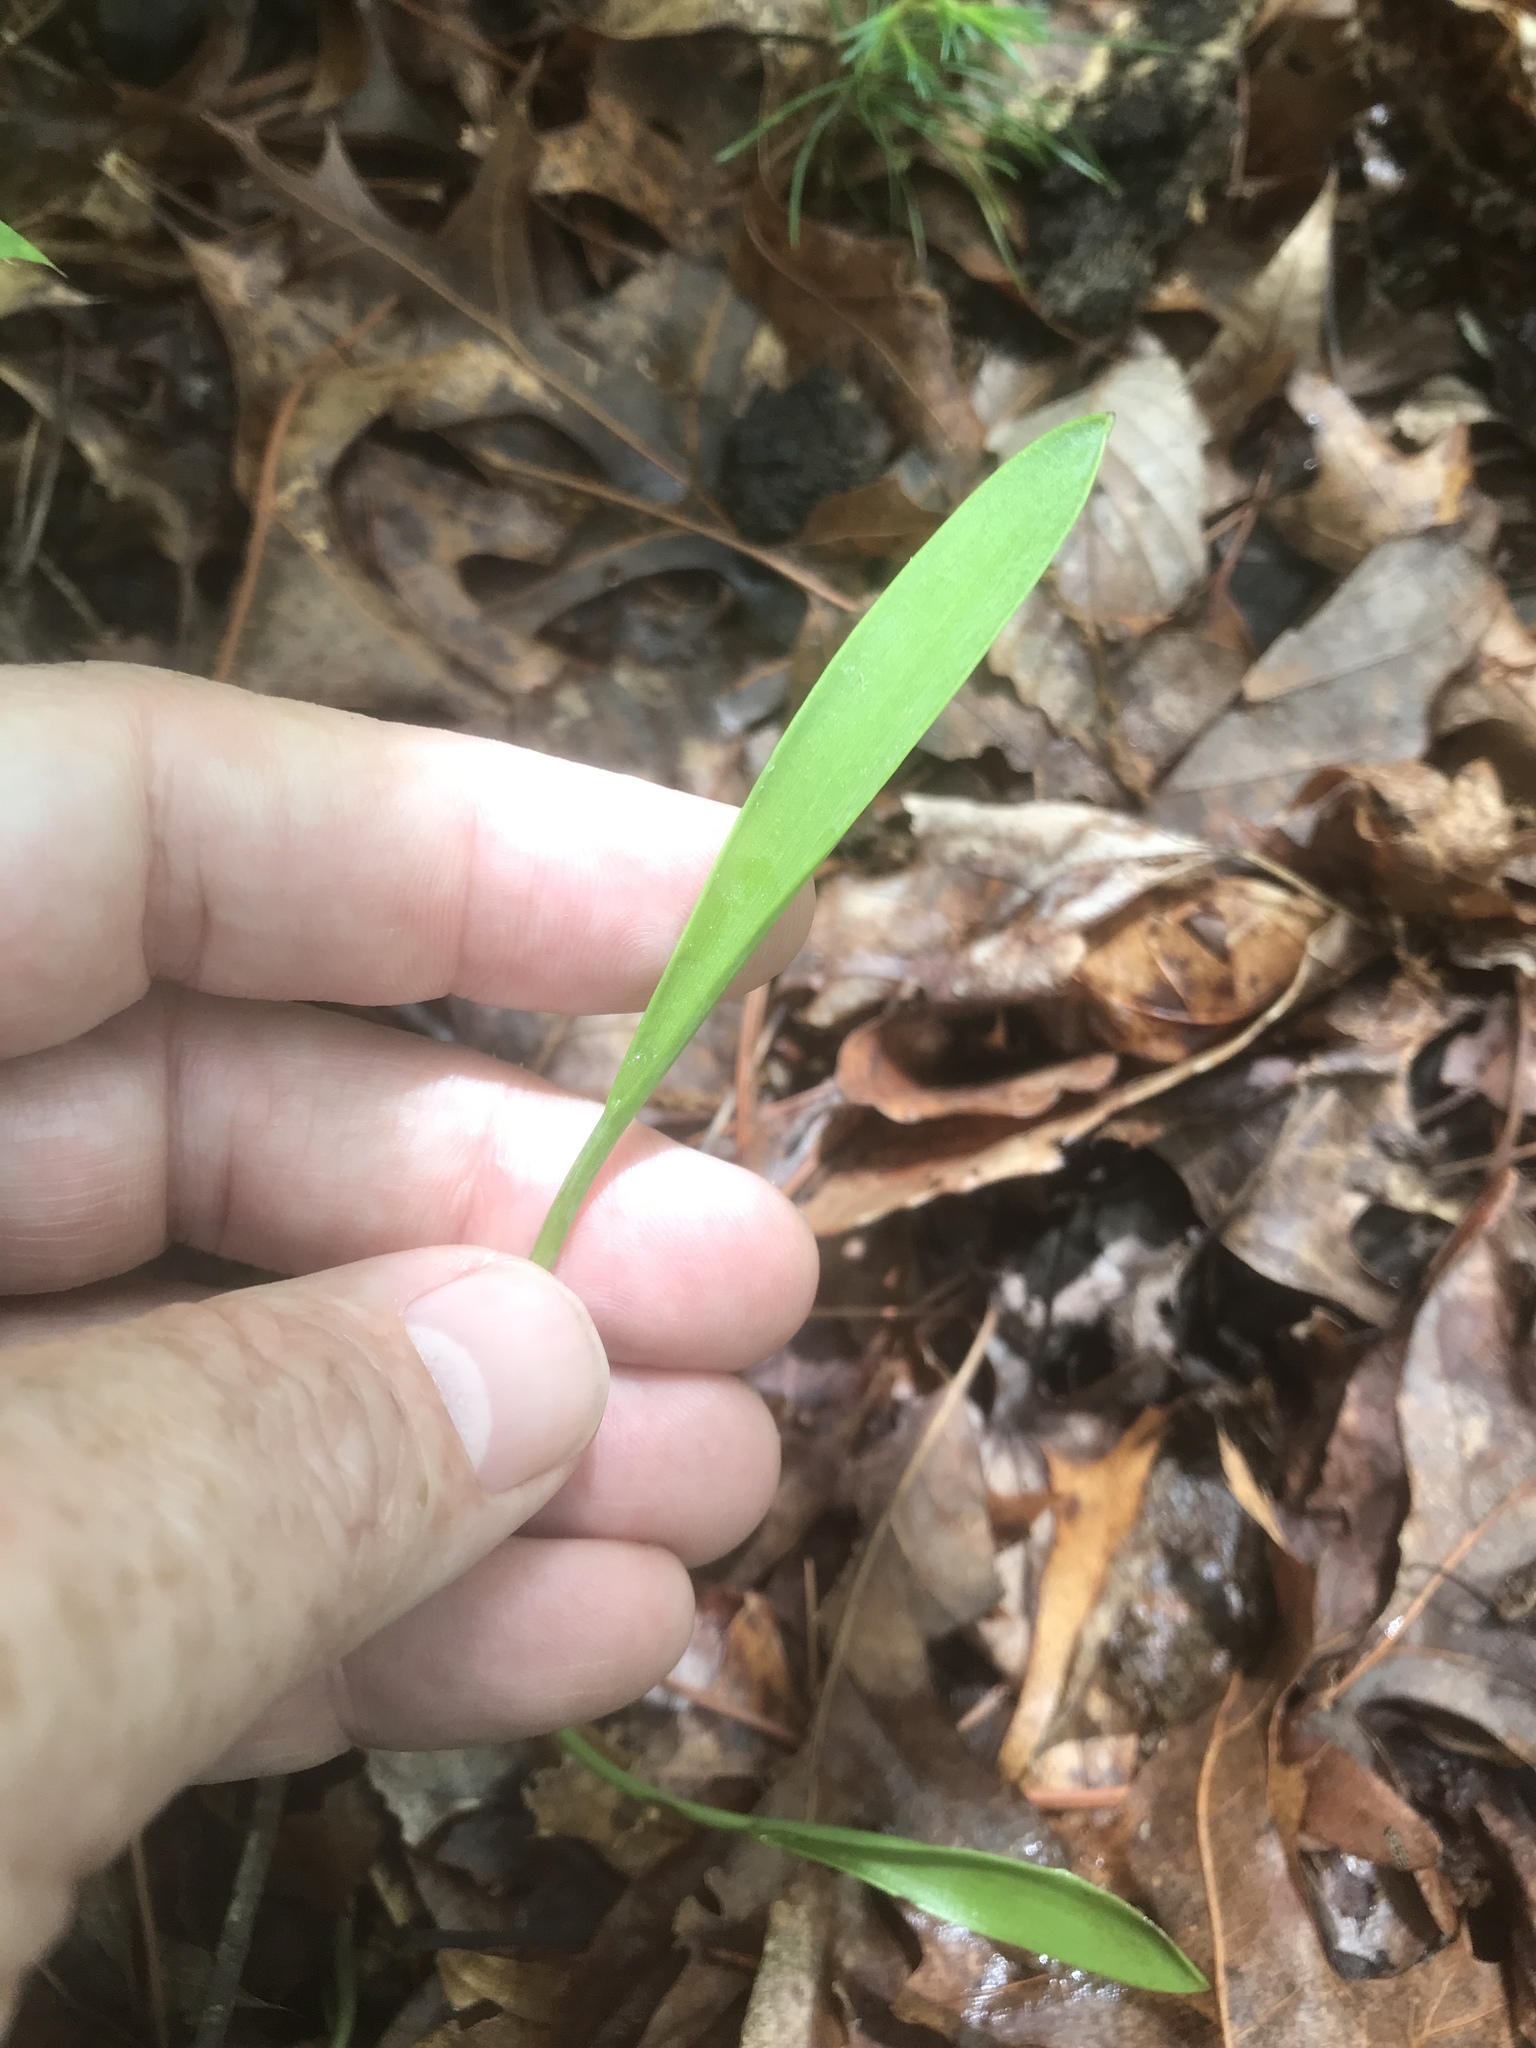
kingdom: Plantae
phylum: Tracheophyta
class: Liliopsida
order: Asparagales
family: Orchidaceae
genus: Cleistesiopsis
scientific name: Cleistesiopsis bifaria
